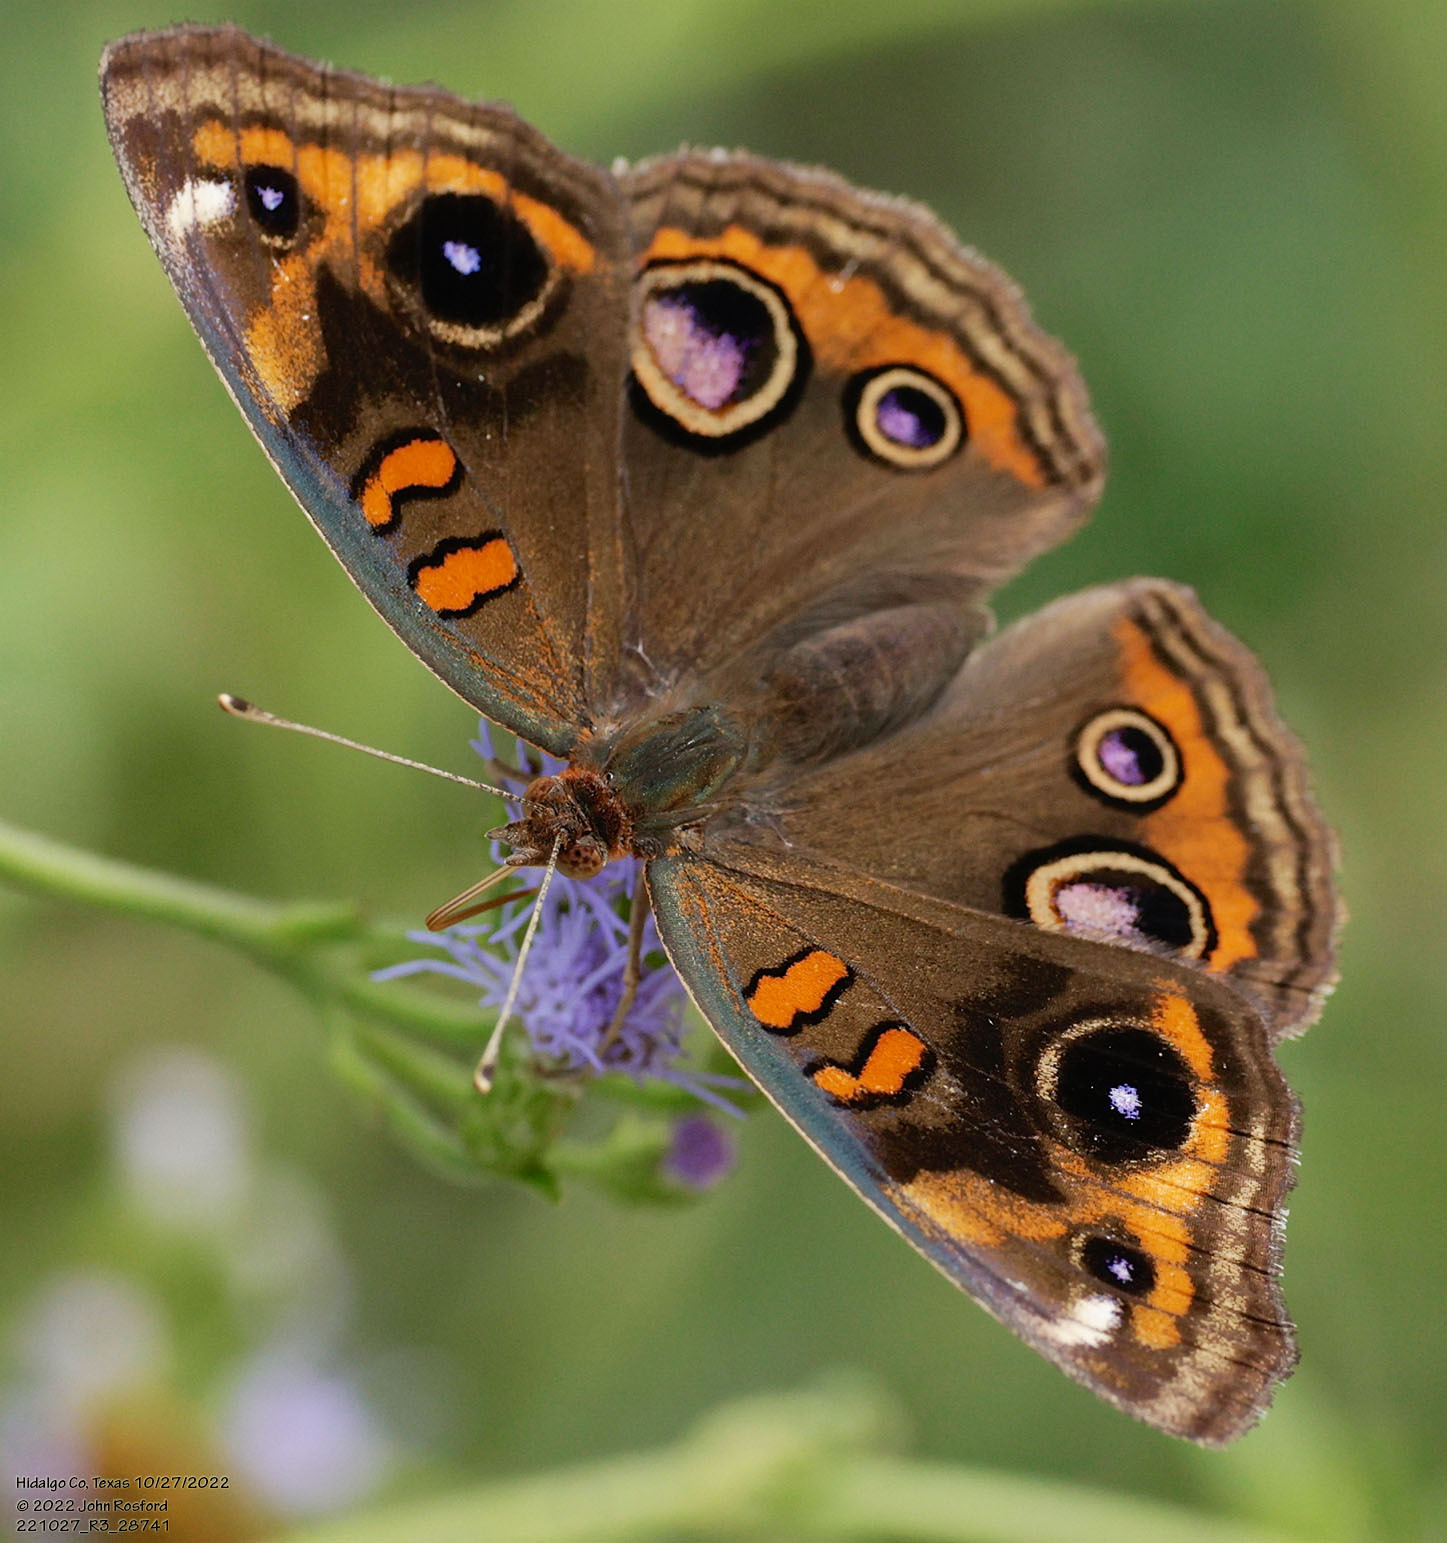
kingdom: Animalia
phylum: Arthropoda
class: Insecta
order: Lepidoptera
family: Nymphalidae
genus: Junonia
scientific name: Junonia coenia
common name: Common buckeye
